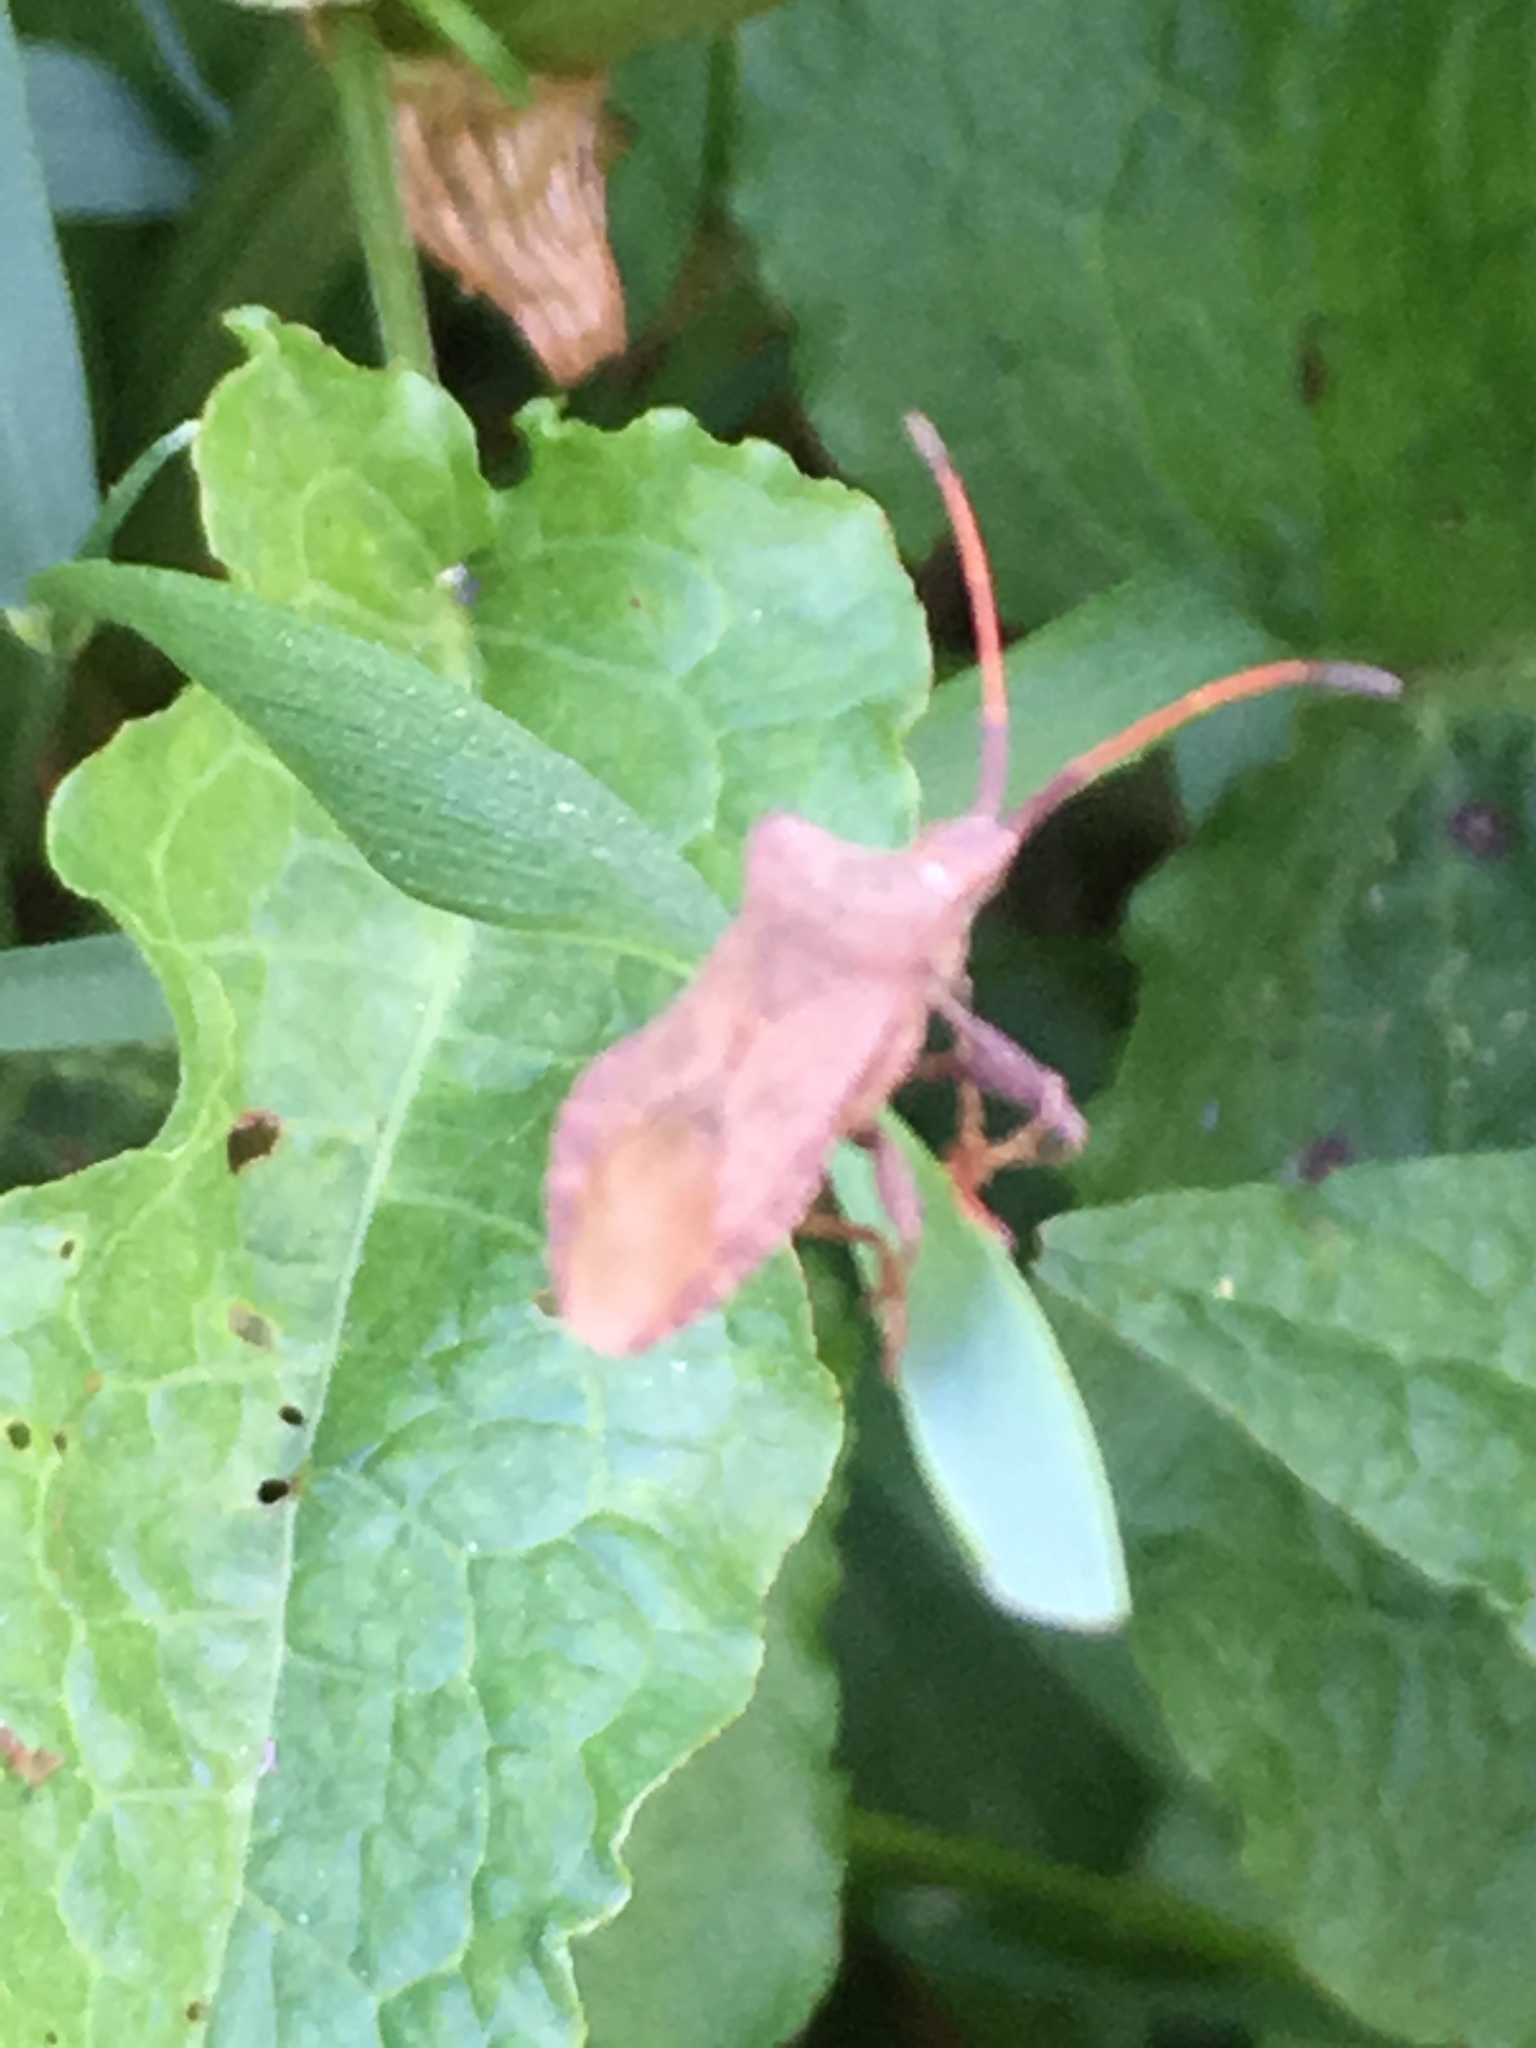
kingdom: Animalia
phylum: Arthropoda
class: Insecta
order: Hemiptera
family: Coreidae
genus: Coreus
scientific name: Coreus marginatus
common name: Dock bug
